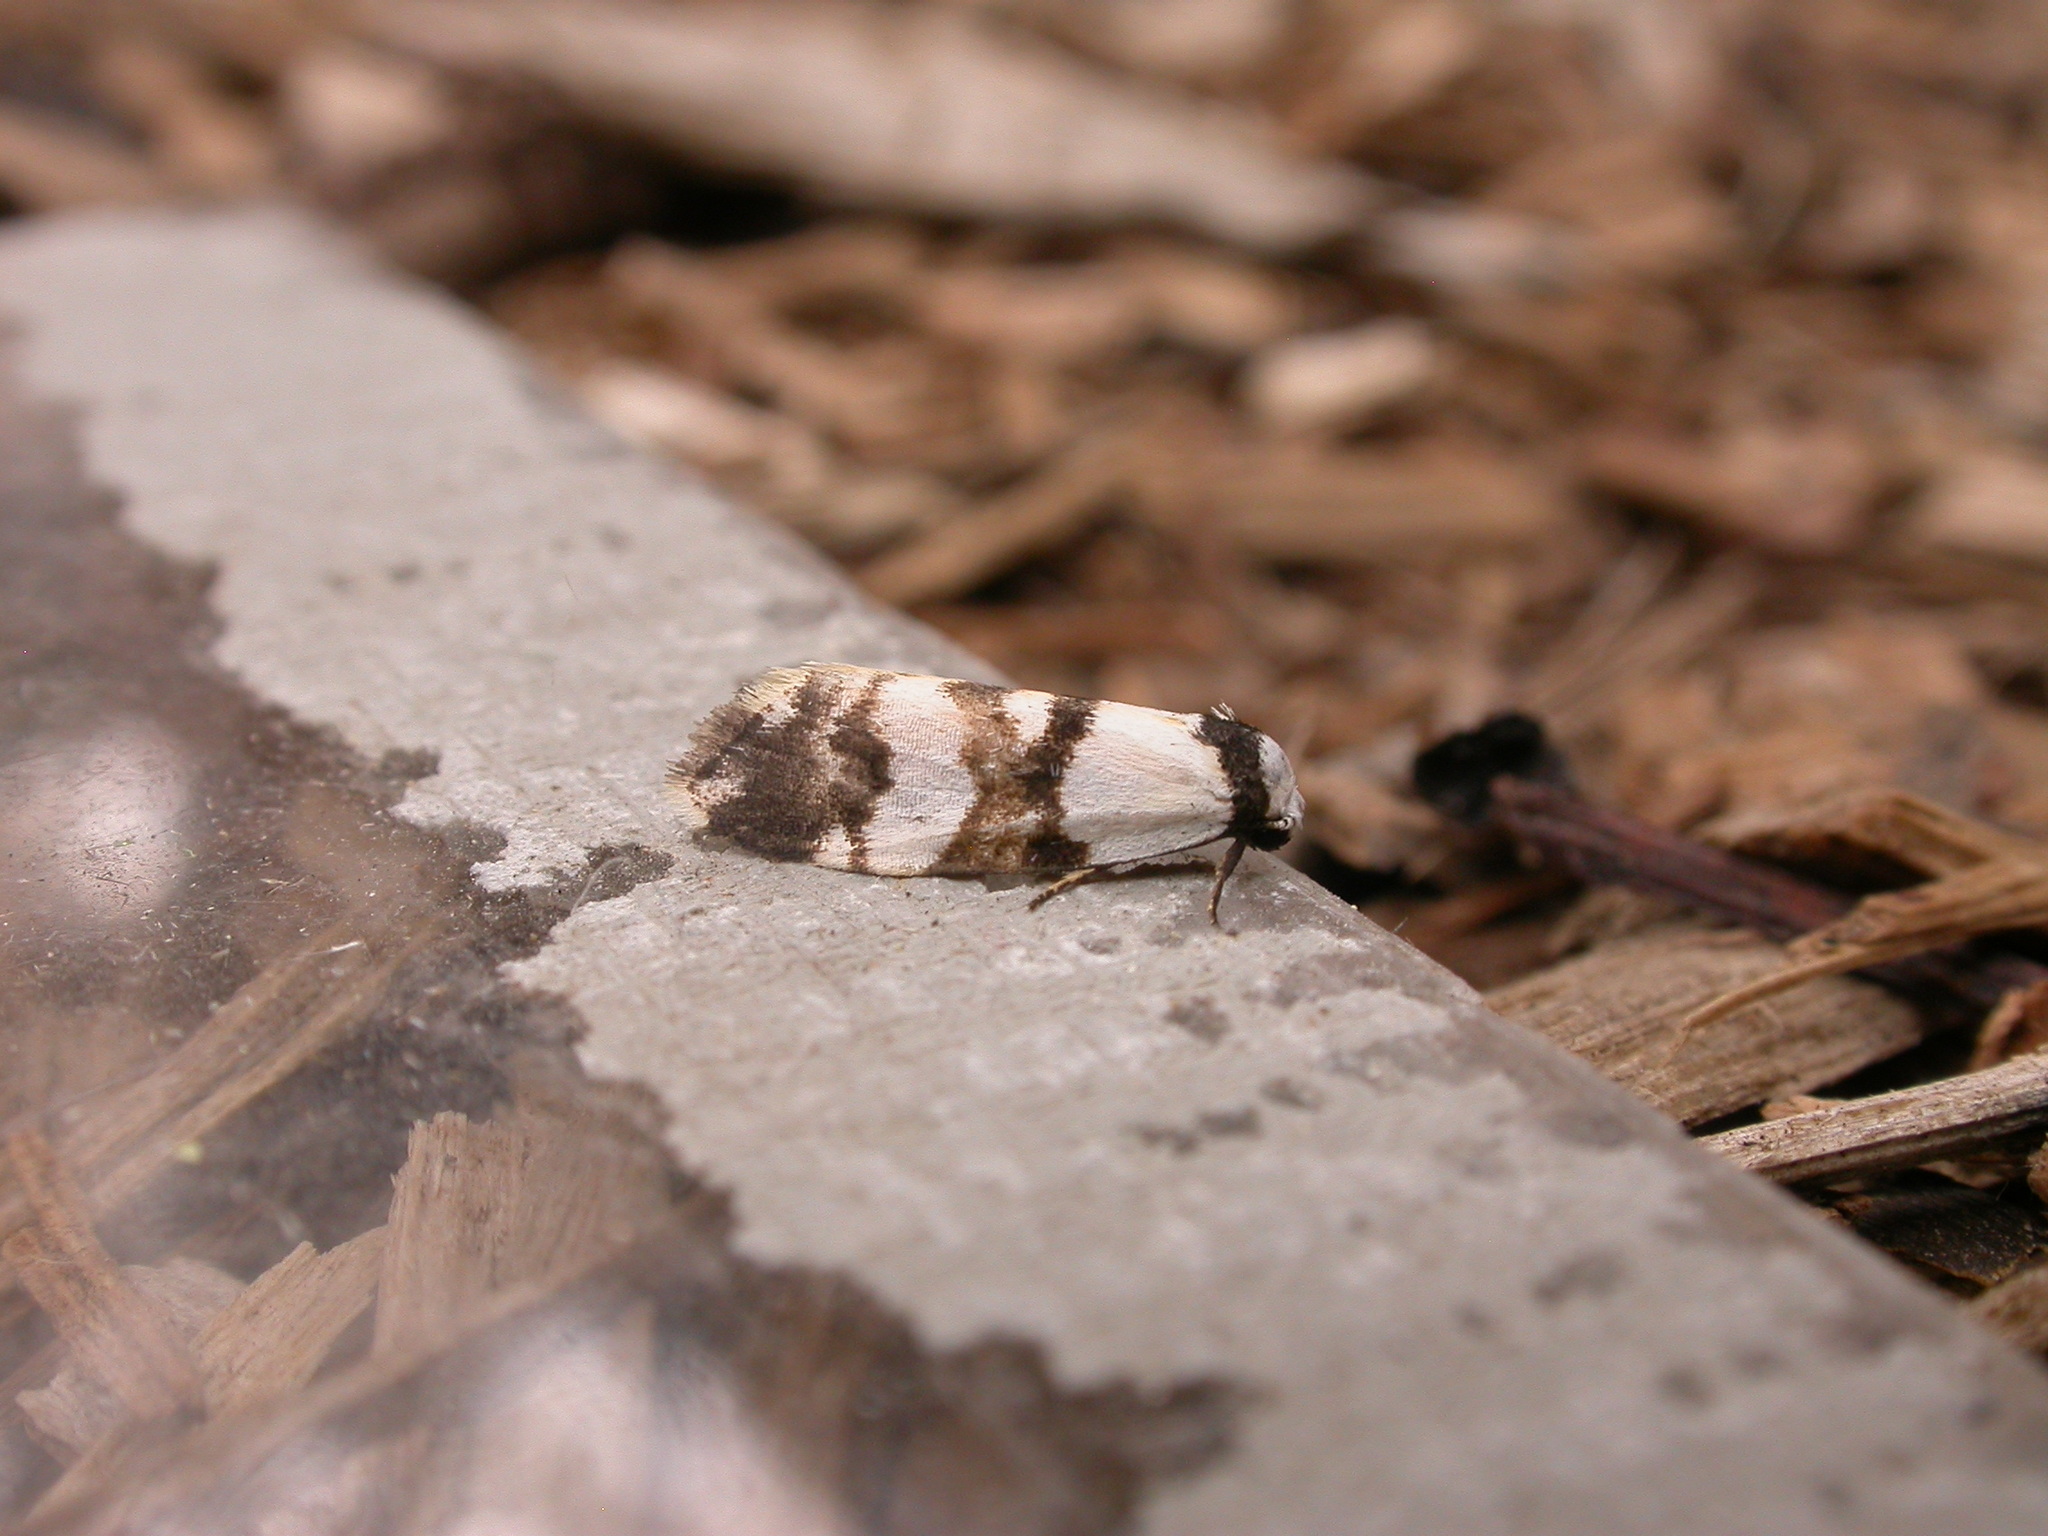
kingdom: Animalia
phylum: Arthropoda
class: Insecta
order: Lepidoptera
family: Erebidae
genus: Thallarcha
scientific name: Thallarcha albicollis
